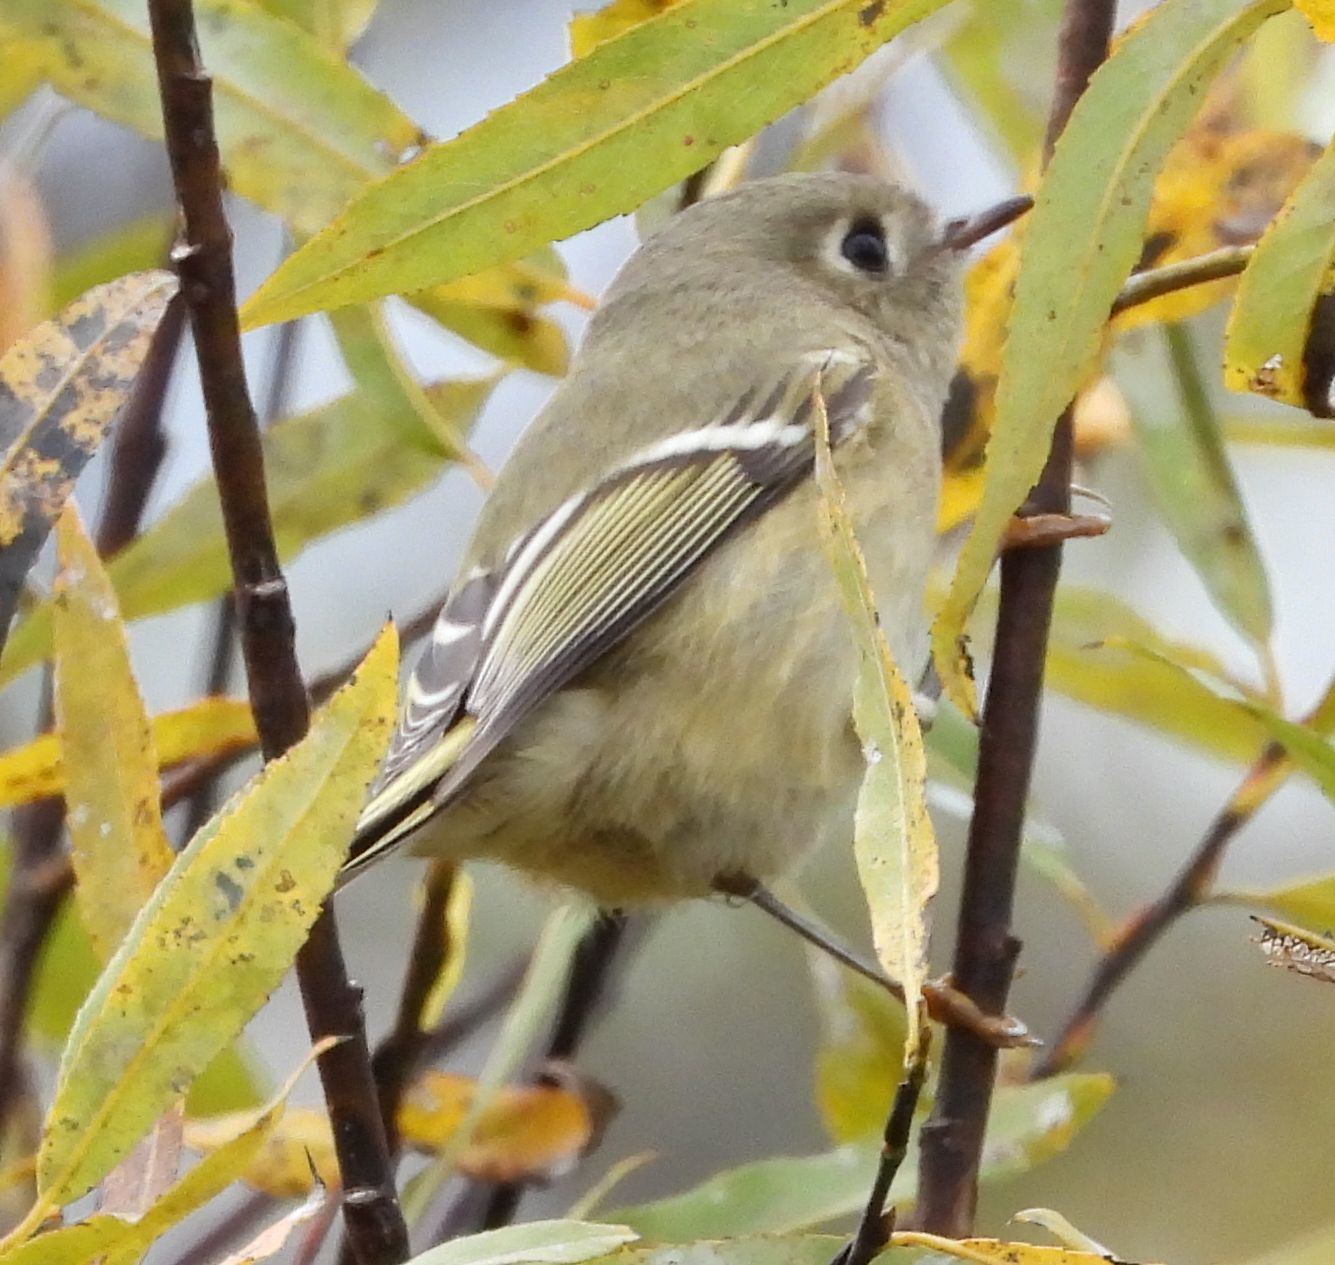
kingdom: Animalia
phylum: Chordata
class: Aves
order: Passeriformes
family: Regulidae
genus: Regulus
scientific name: Regulus calendula
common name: Ruby-crowned kinglet
